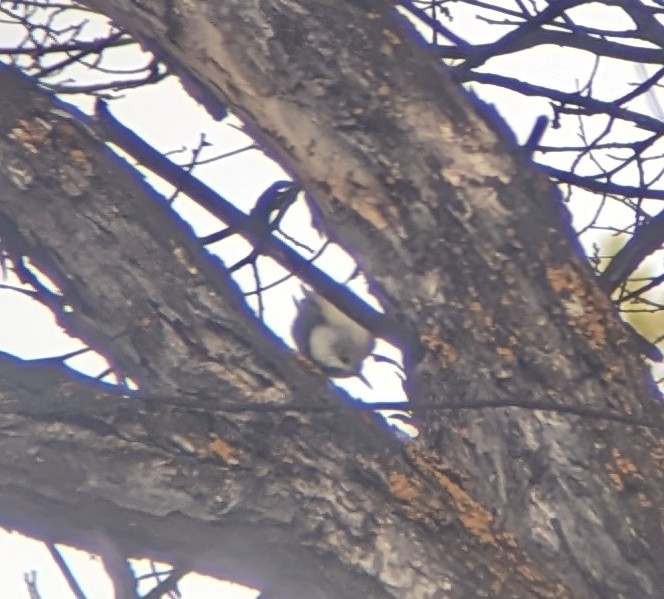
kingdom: Animalia
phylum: Chordata
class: Aves
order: Passeriformes
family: Sittidae
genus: Sitta
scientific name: Sitta carolinensis
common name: White-breasted nuthatch
